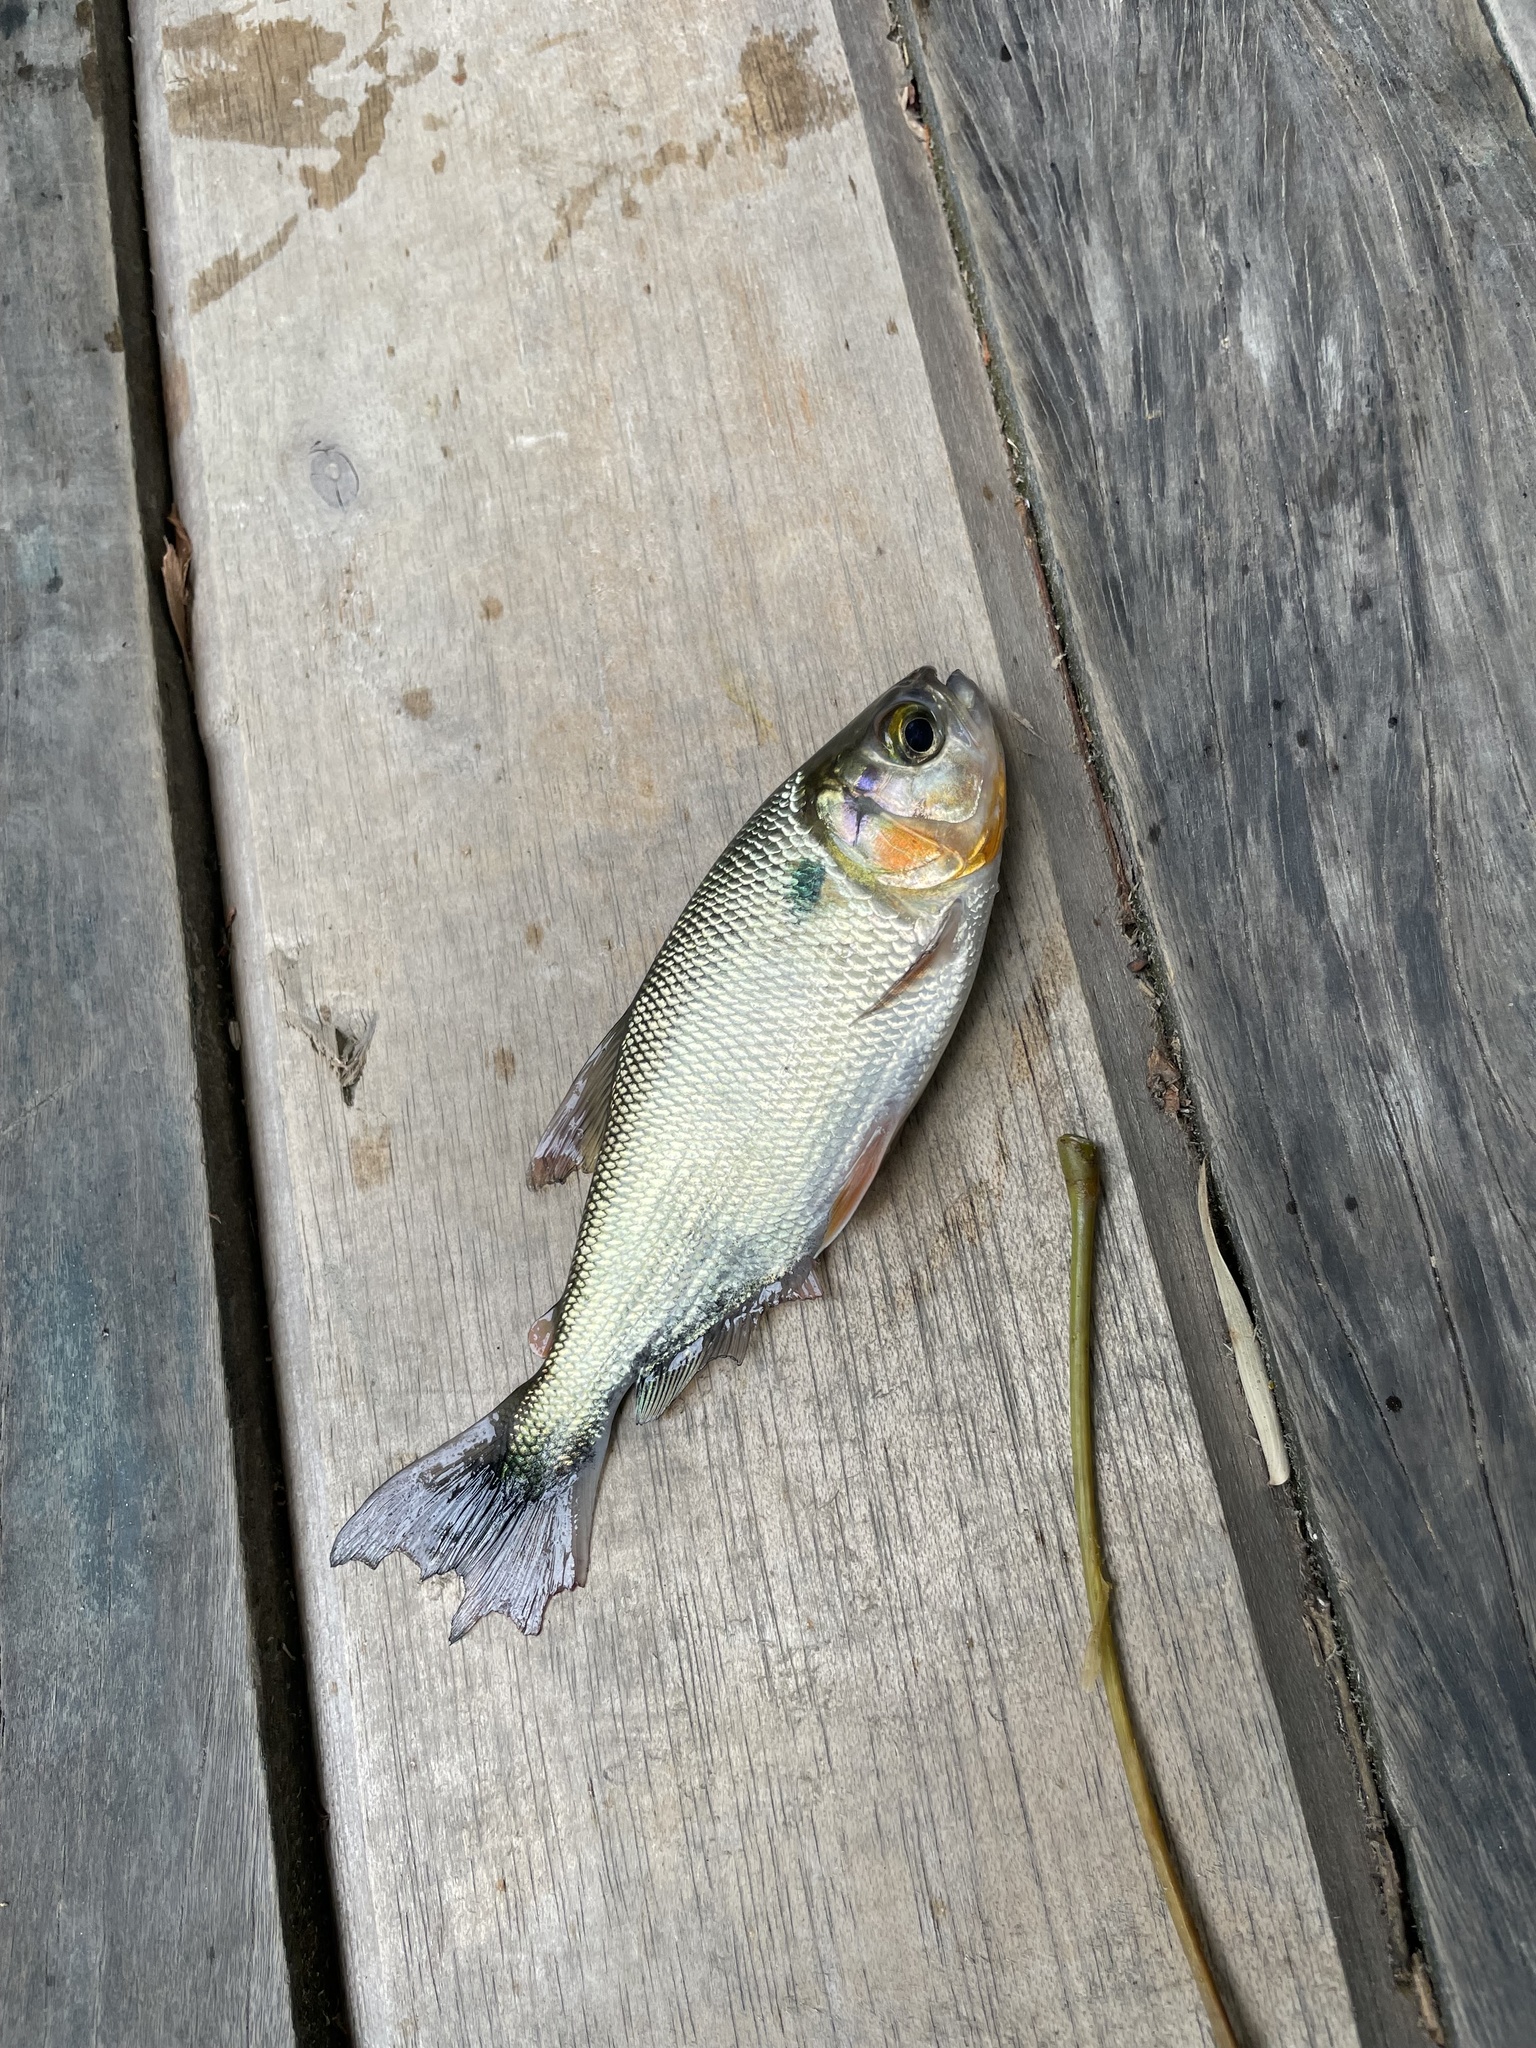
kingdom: Animalia
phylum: Chordata
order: Characiformes
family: Bryconidae
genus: Brycon
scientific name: Brycon amazonicus
